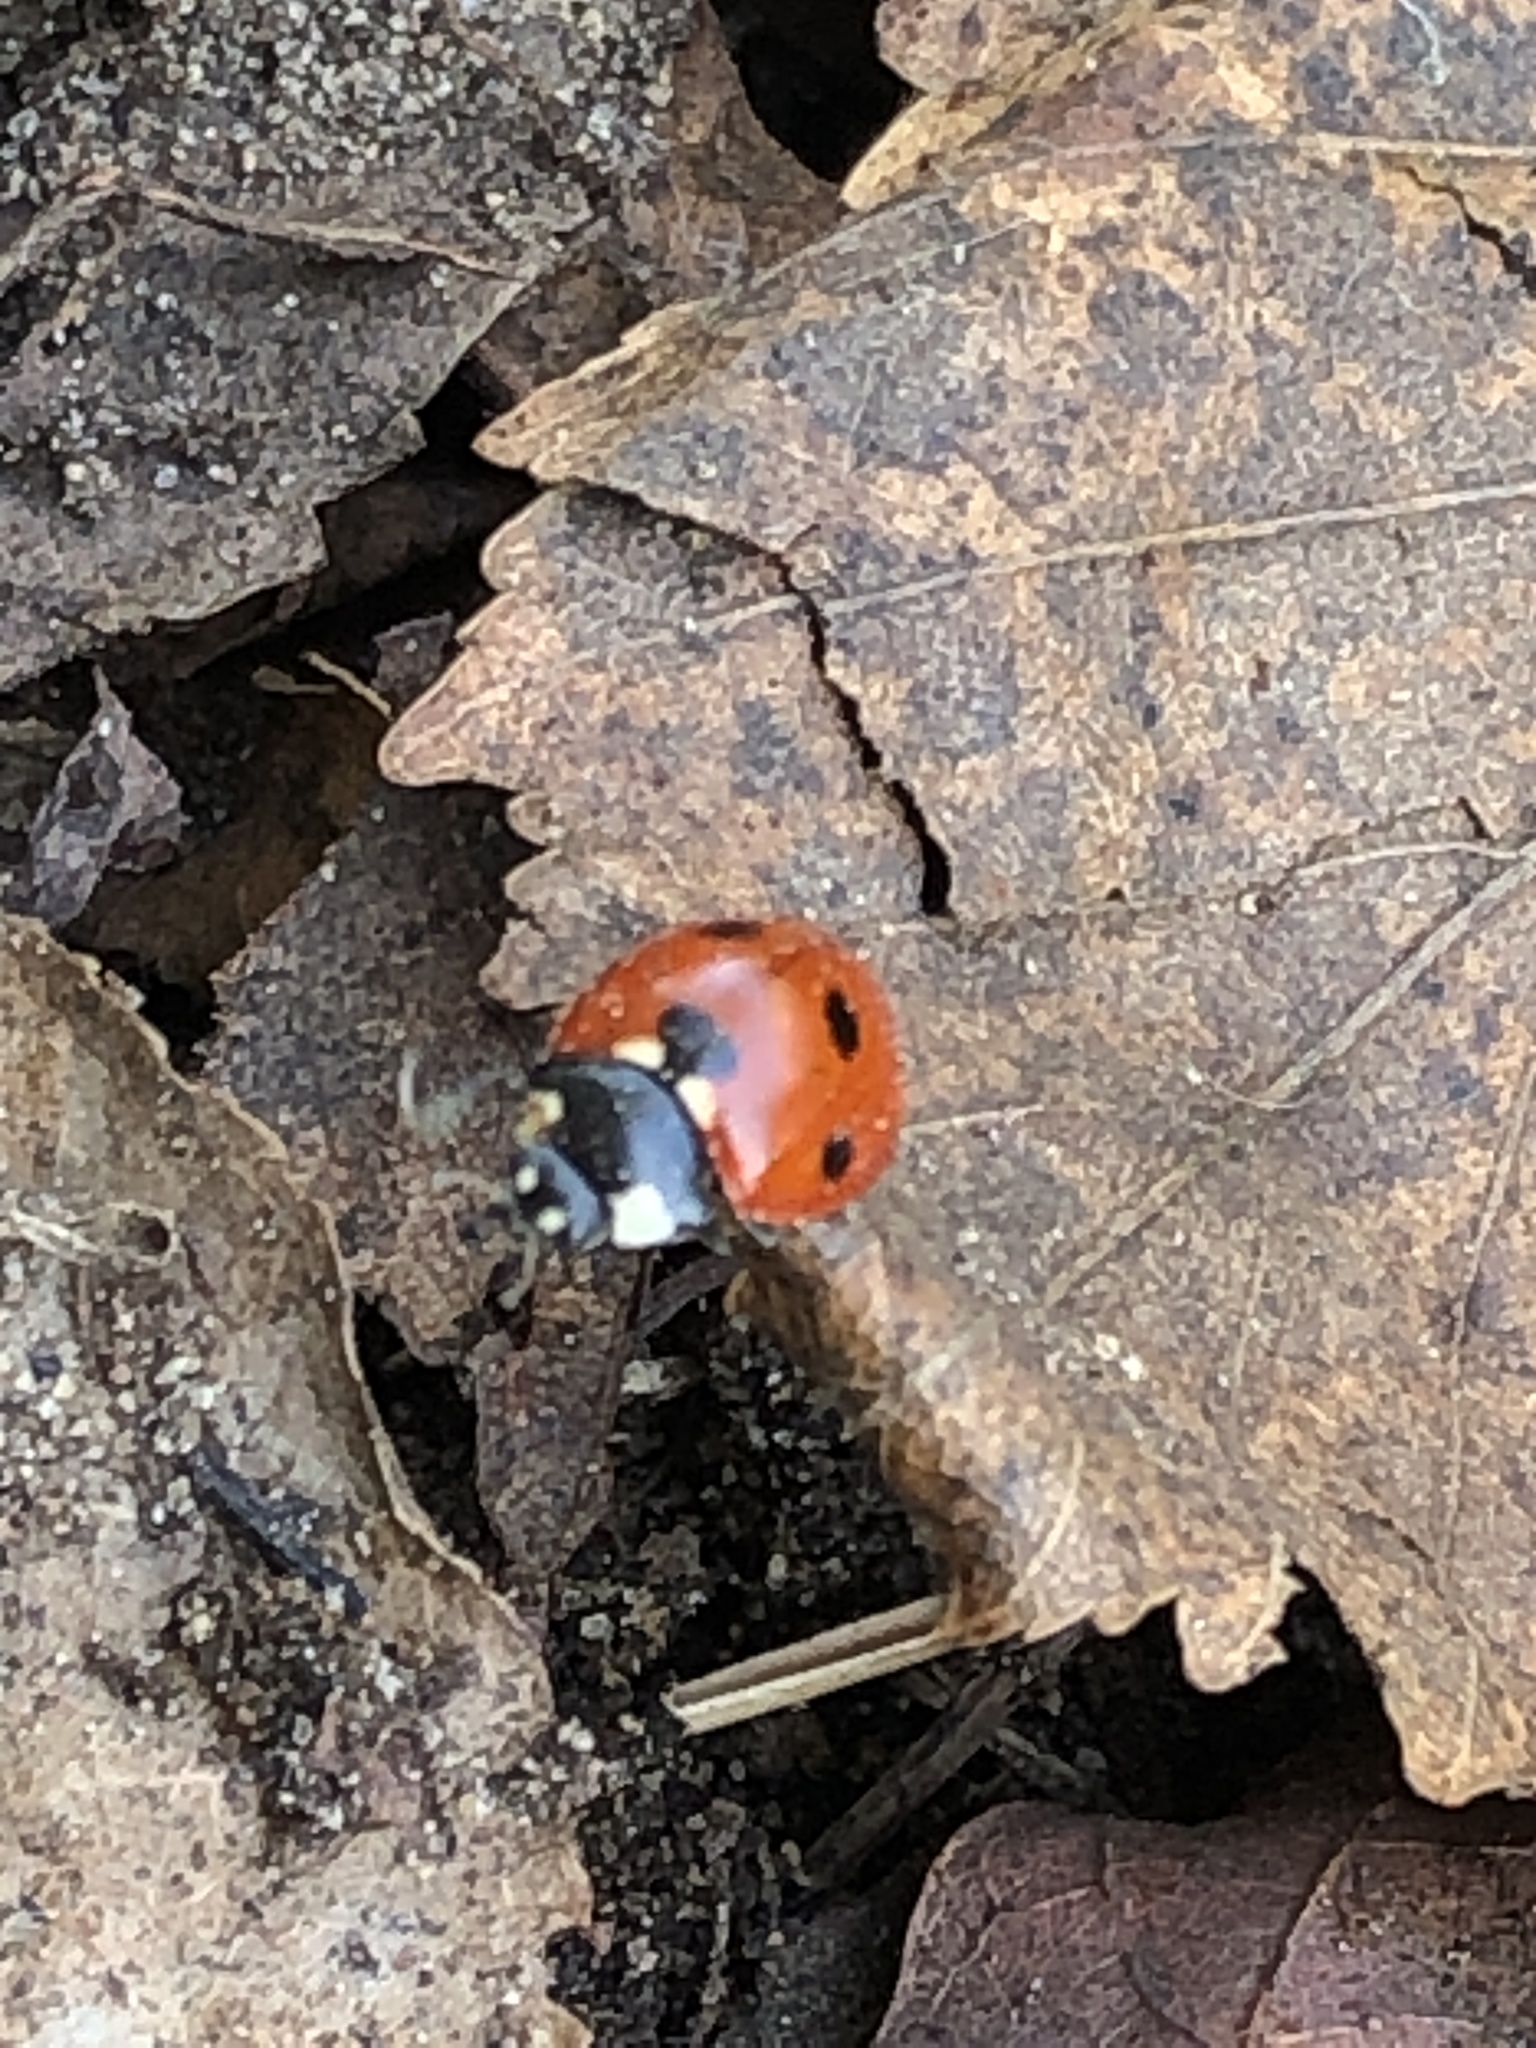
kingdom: Animalia
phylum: Arthropoda
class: Insecta
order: Coleoptera
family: Coccinellidae
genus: Coccinella
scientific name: Coccinella septempunctata
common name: Sevenspotted lady beetle
